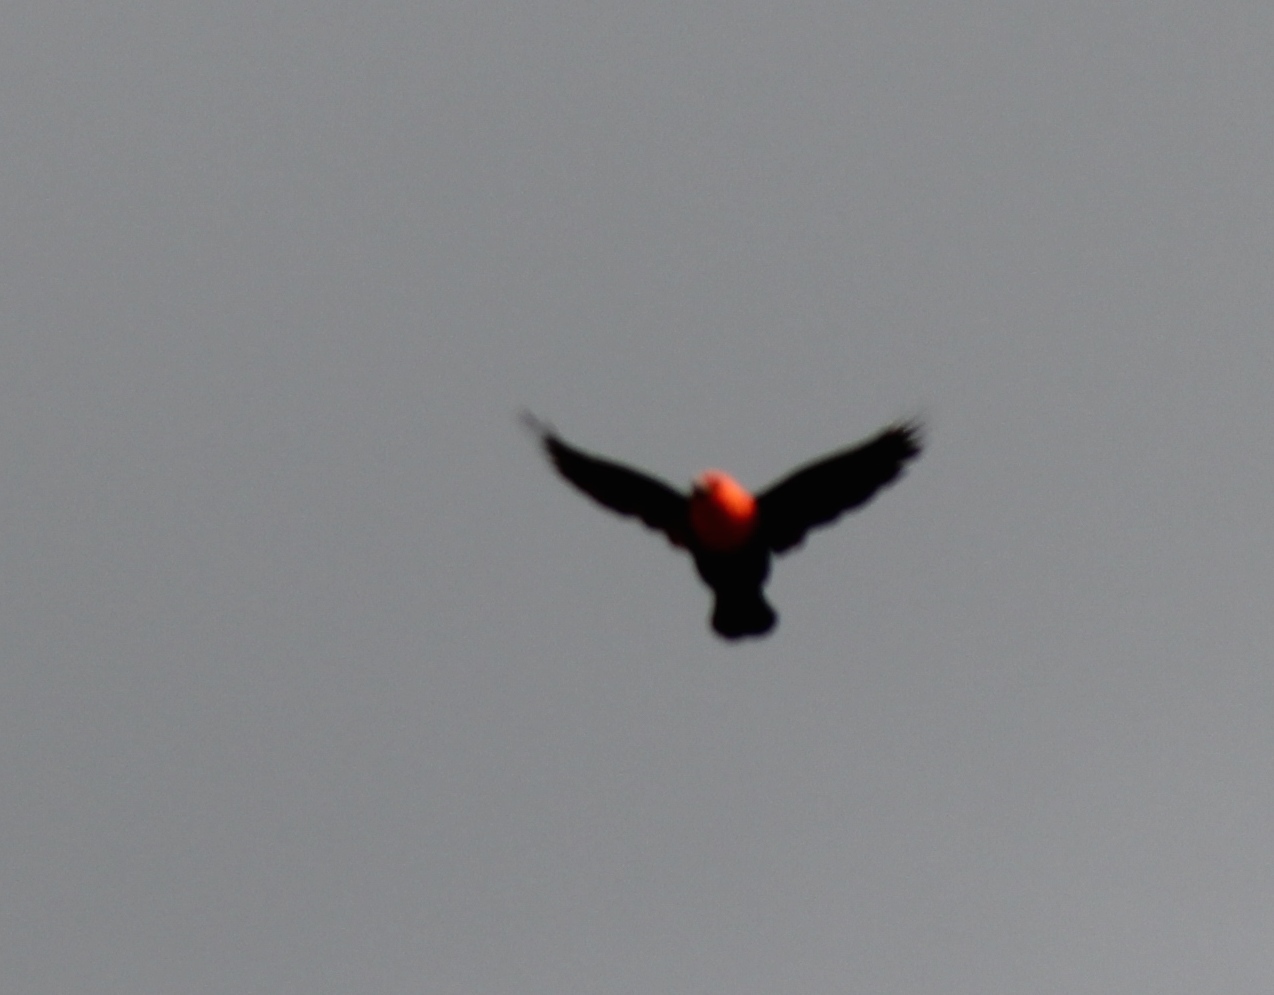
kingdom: Animalia
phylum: Chordata
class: Aves
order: Passeriformes
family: Icteridae
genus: Amblyramphus
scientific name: Amblyramphus holosericeus
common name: Scarlet-headed blackbird
